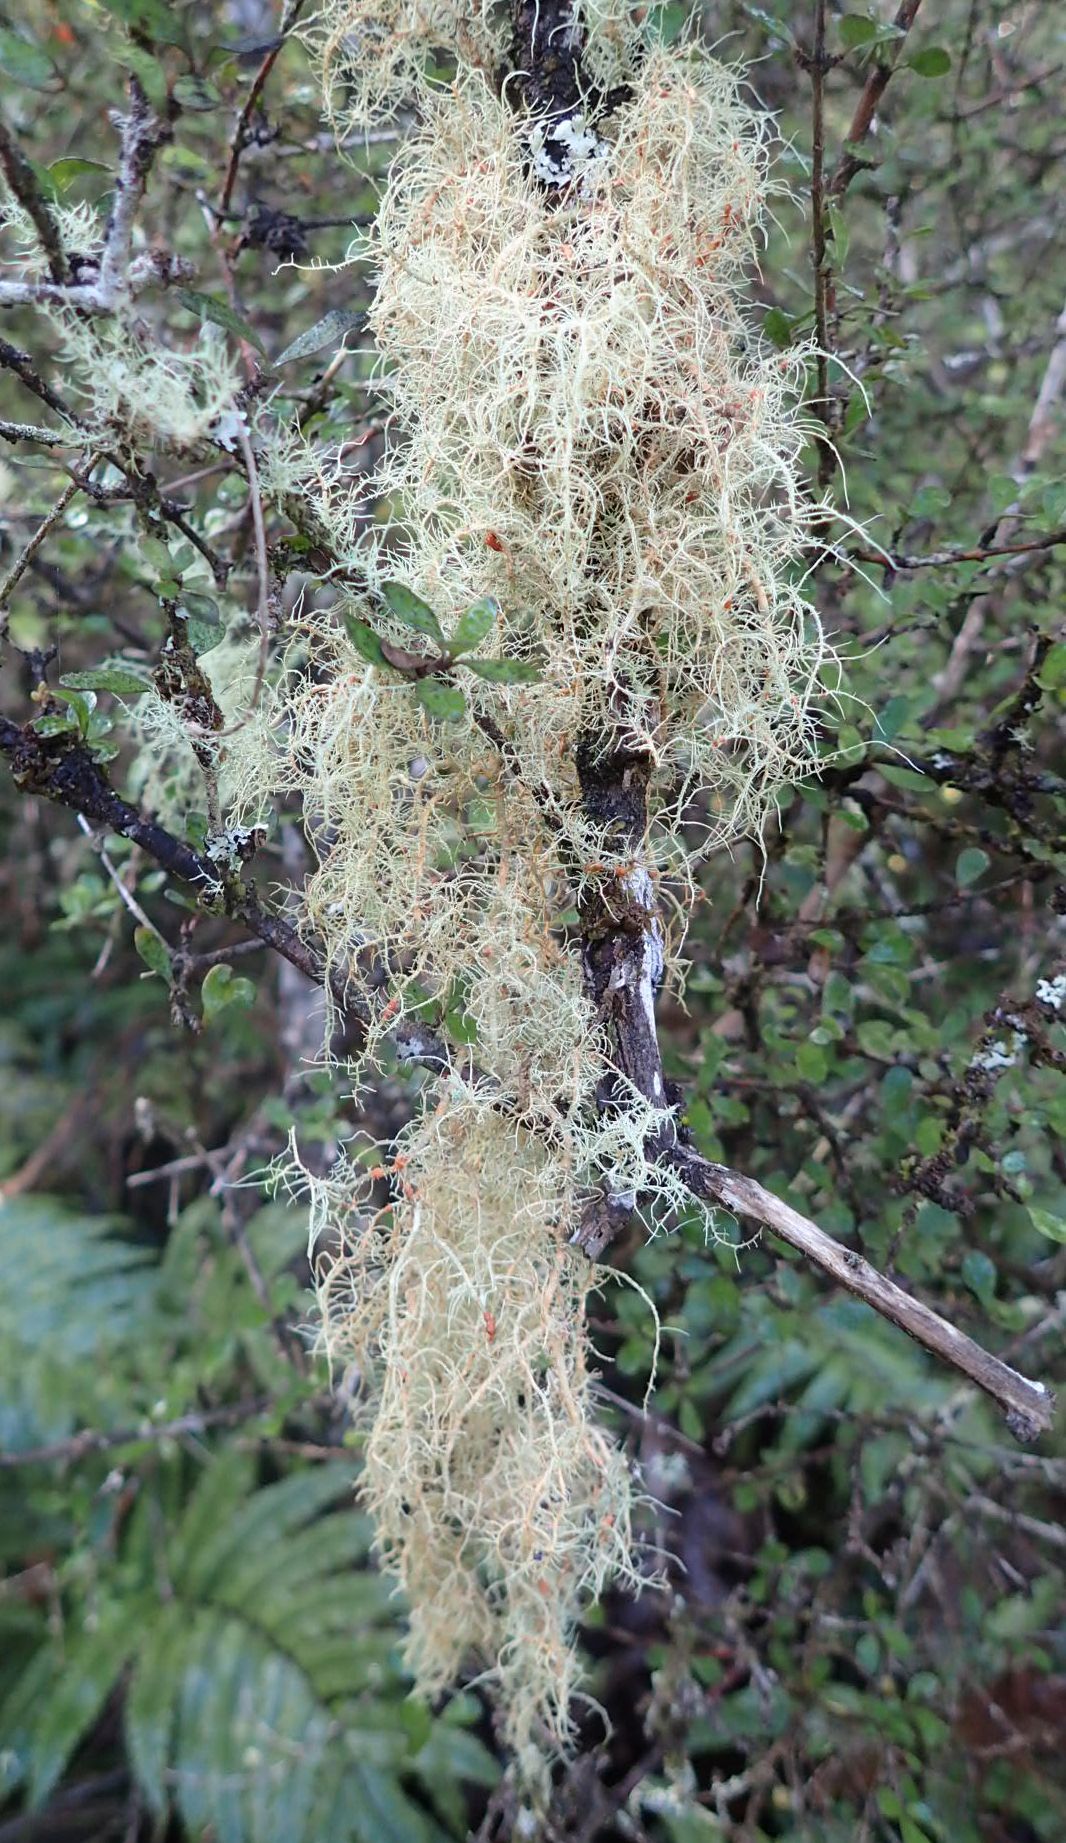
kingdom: Fungi
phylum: Ascomycota
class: Lecanoromycetes
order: Lecanorales
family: Parmeliaceae
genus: Usnea
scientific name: Usnea rubicunda
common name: Red beard lichen
